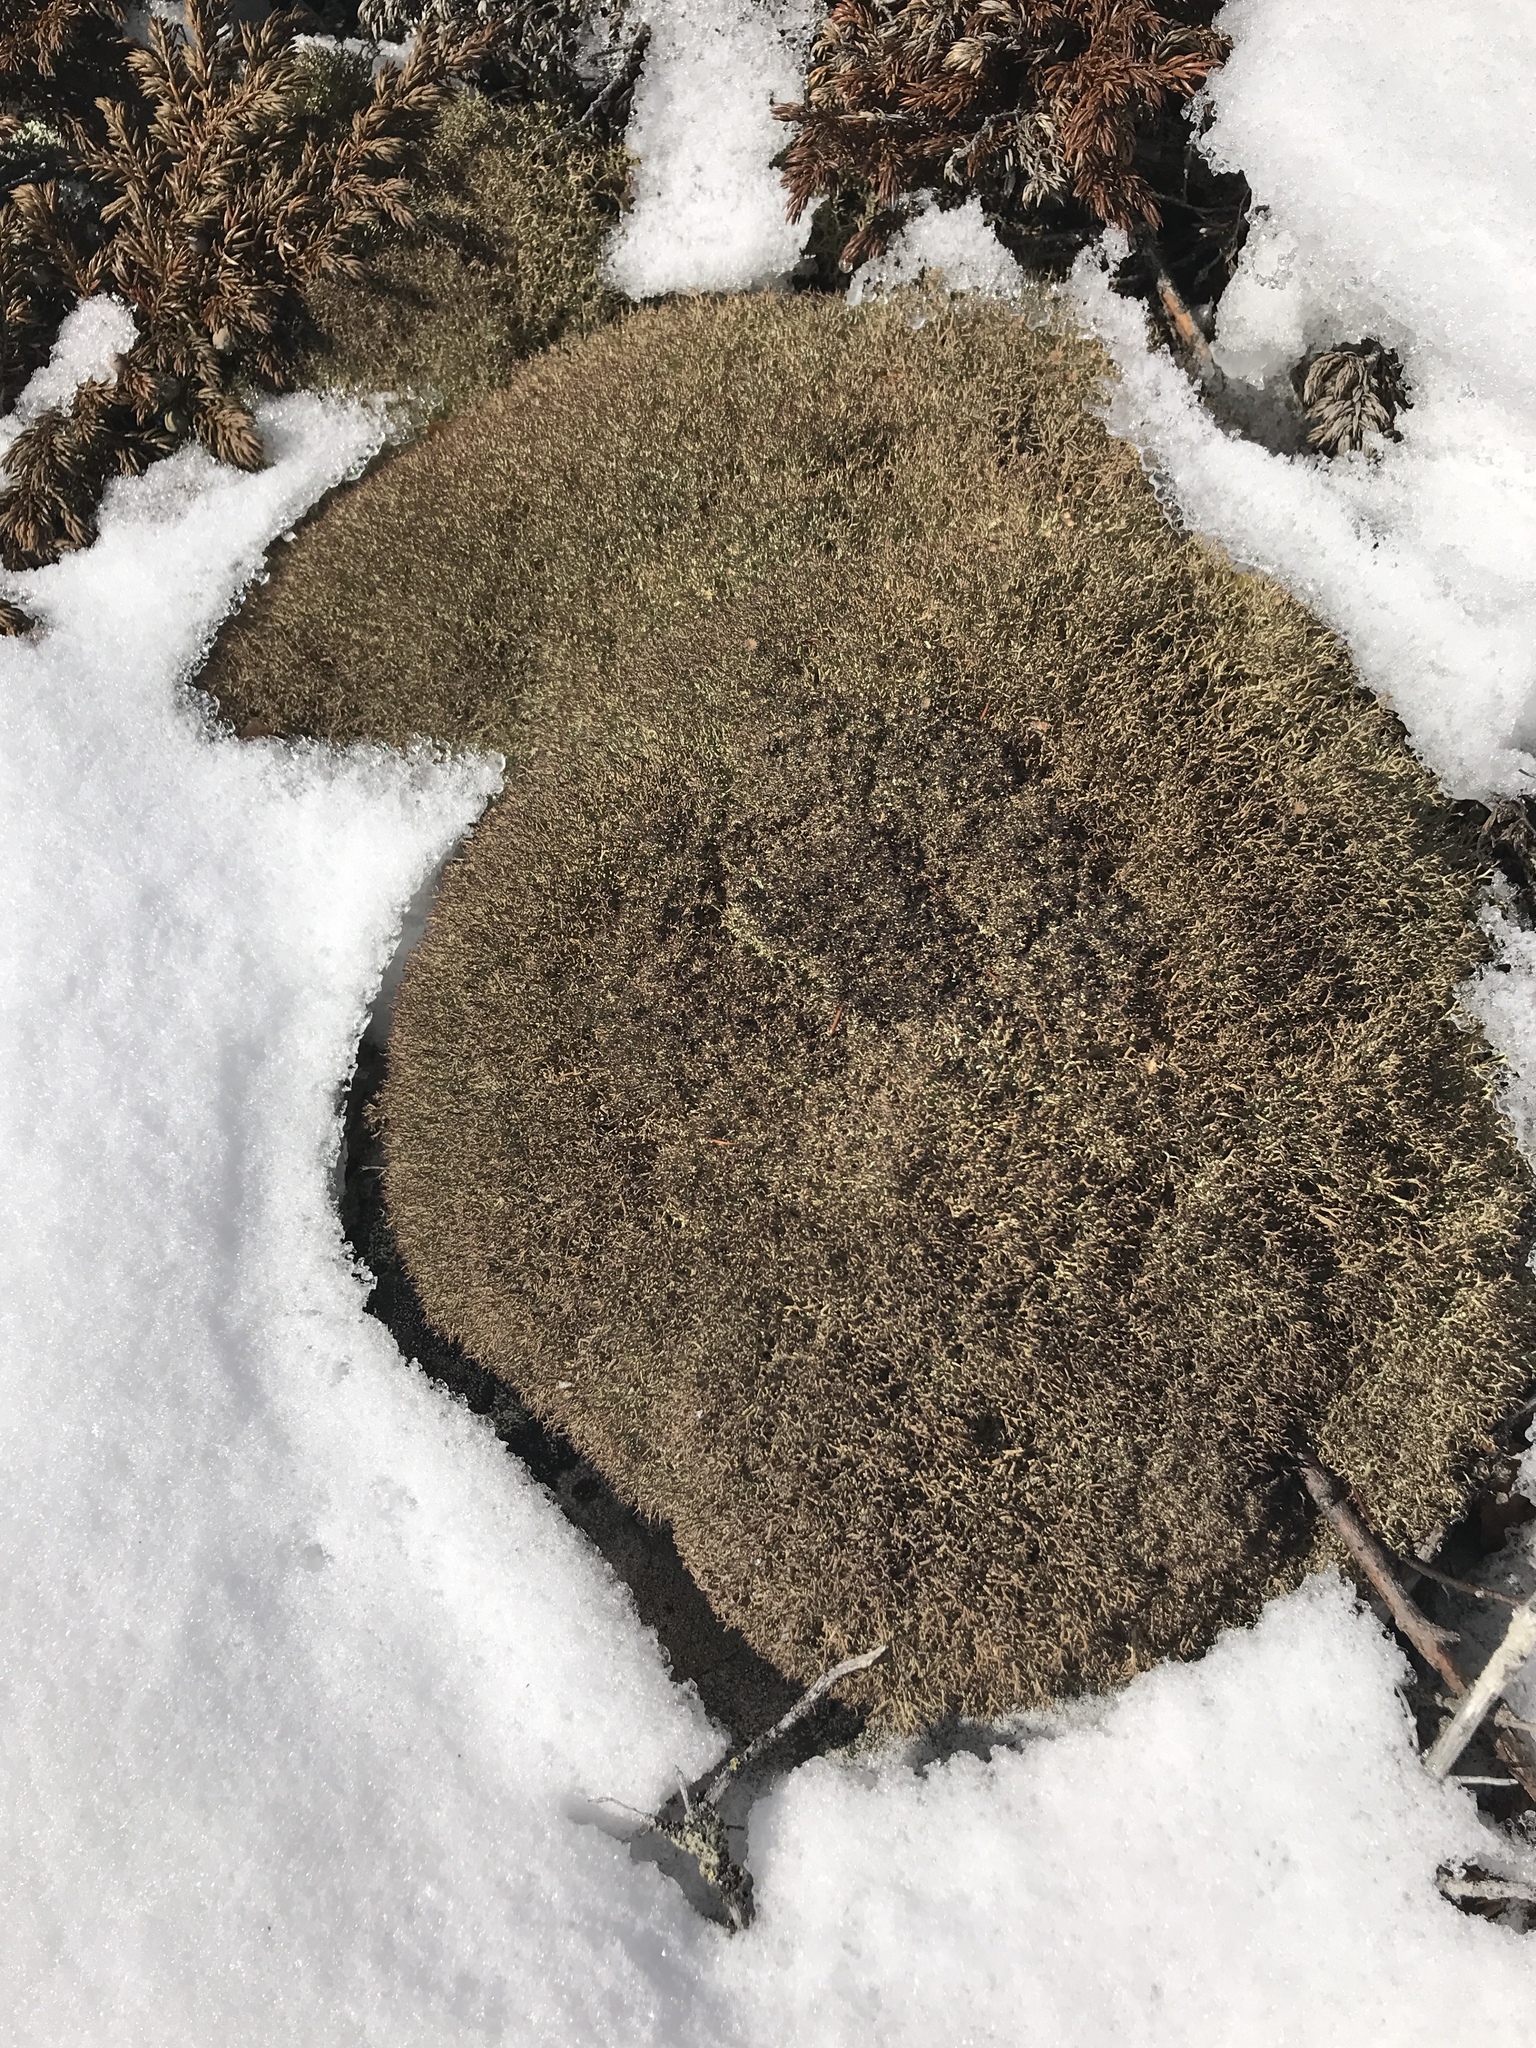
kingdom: Fungi
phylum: Ascomycota
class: Lecanoromycetes
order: Lecanorales
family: Cladoniaceae
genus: Cladonia
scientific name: Cladonia amaurocraea
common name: Quill lichen
